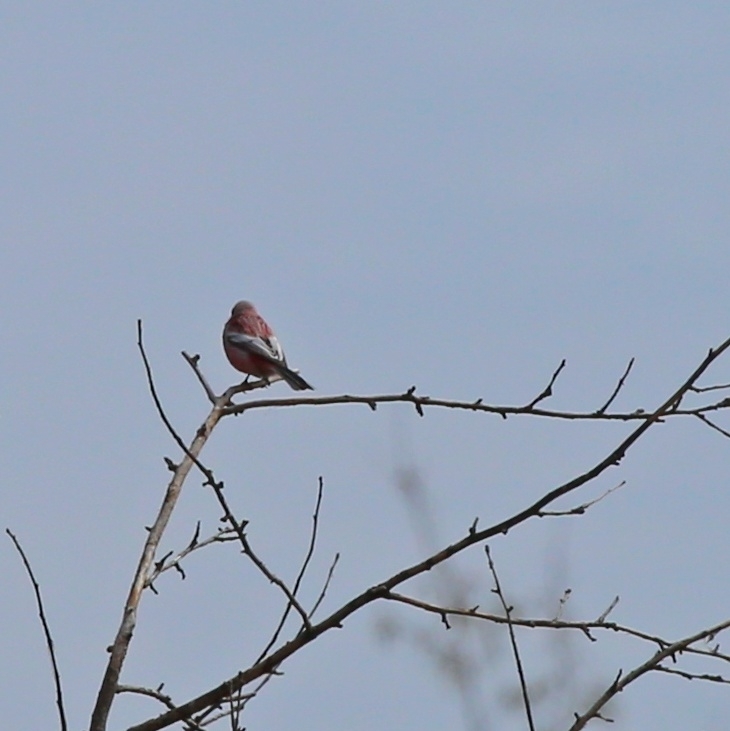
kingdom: Animalia
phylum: Chordata
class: Aves
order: Passeriformes
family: Fringillidae
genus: Carpodacus
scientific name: Carpodacus sibiricus
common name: Long-tailed rosefinch
